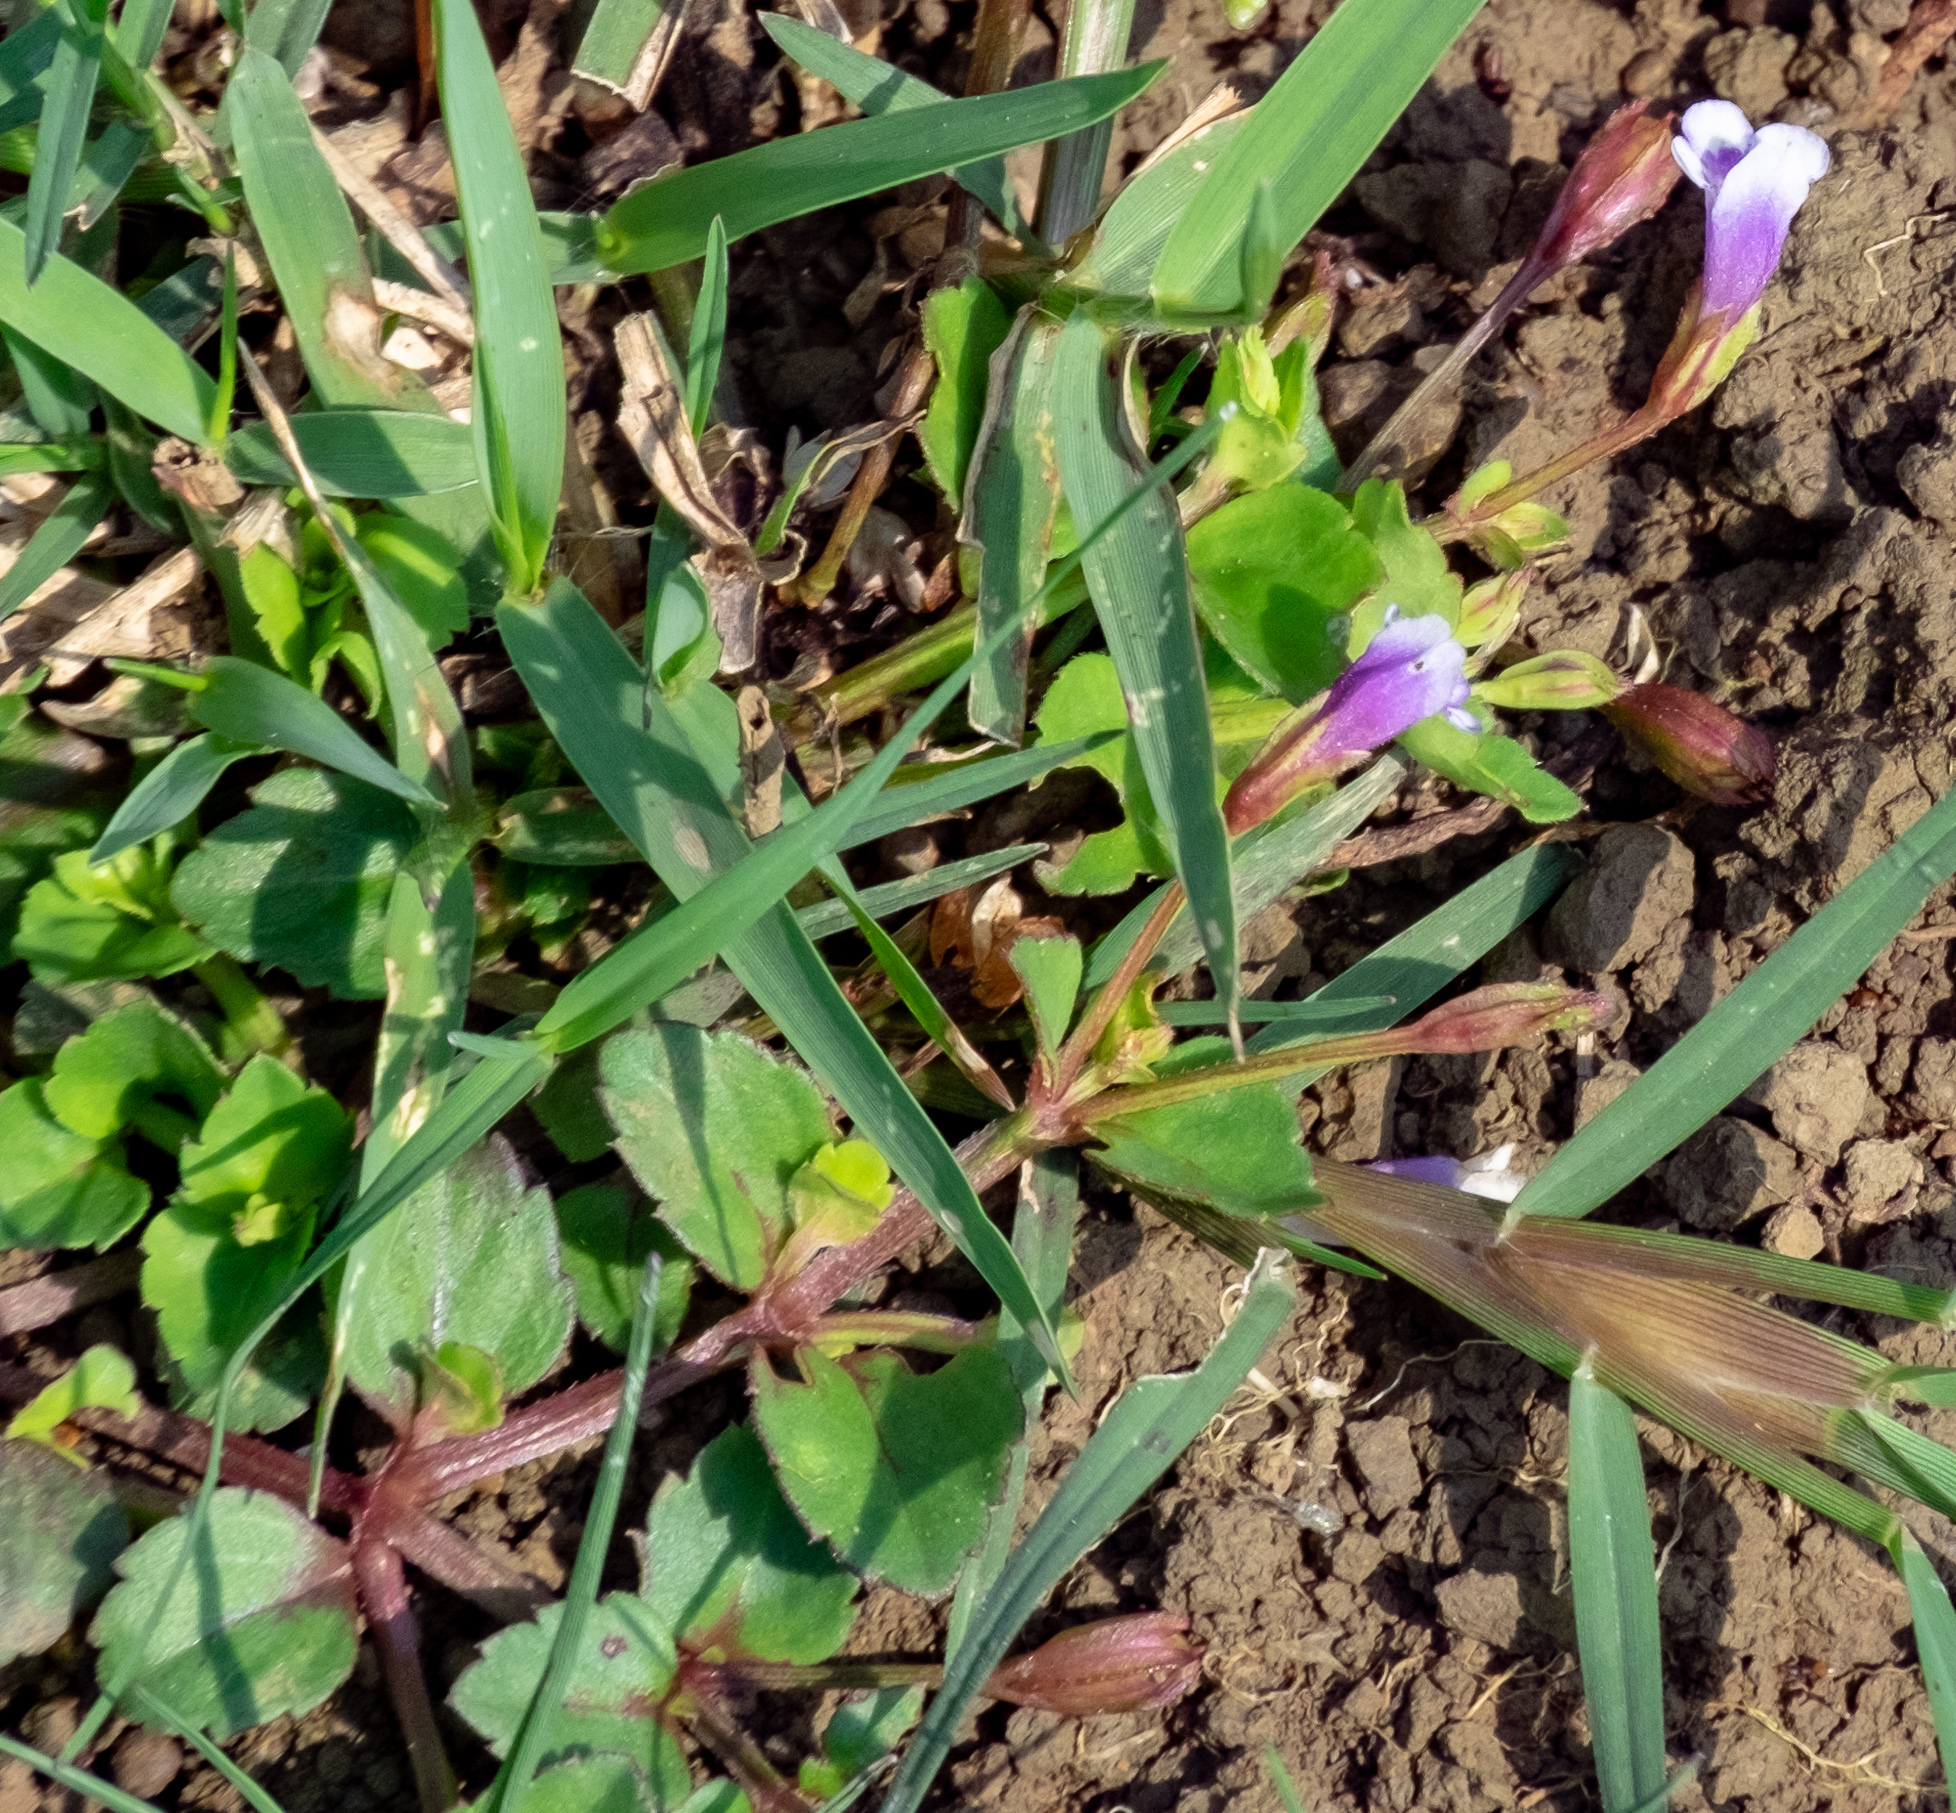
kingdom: Plantae
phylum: Tracheophyta
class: Magnoliopsida
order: Lamiales
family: Linderniaceae
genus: Torenia
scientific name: Torenia crustacea
